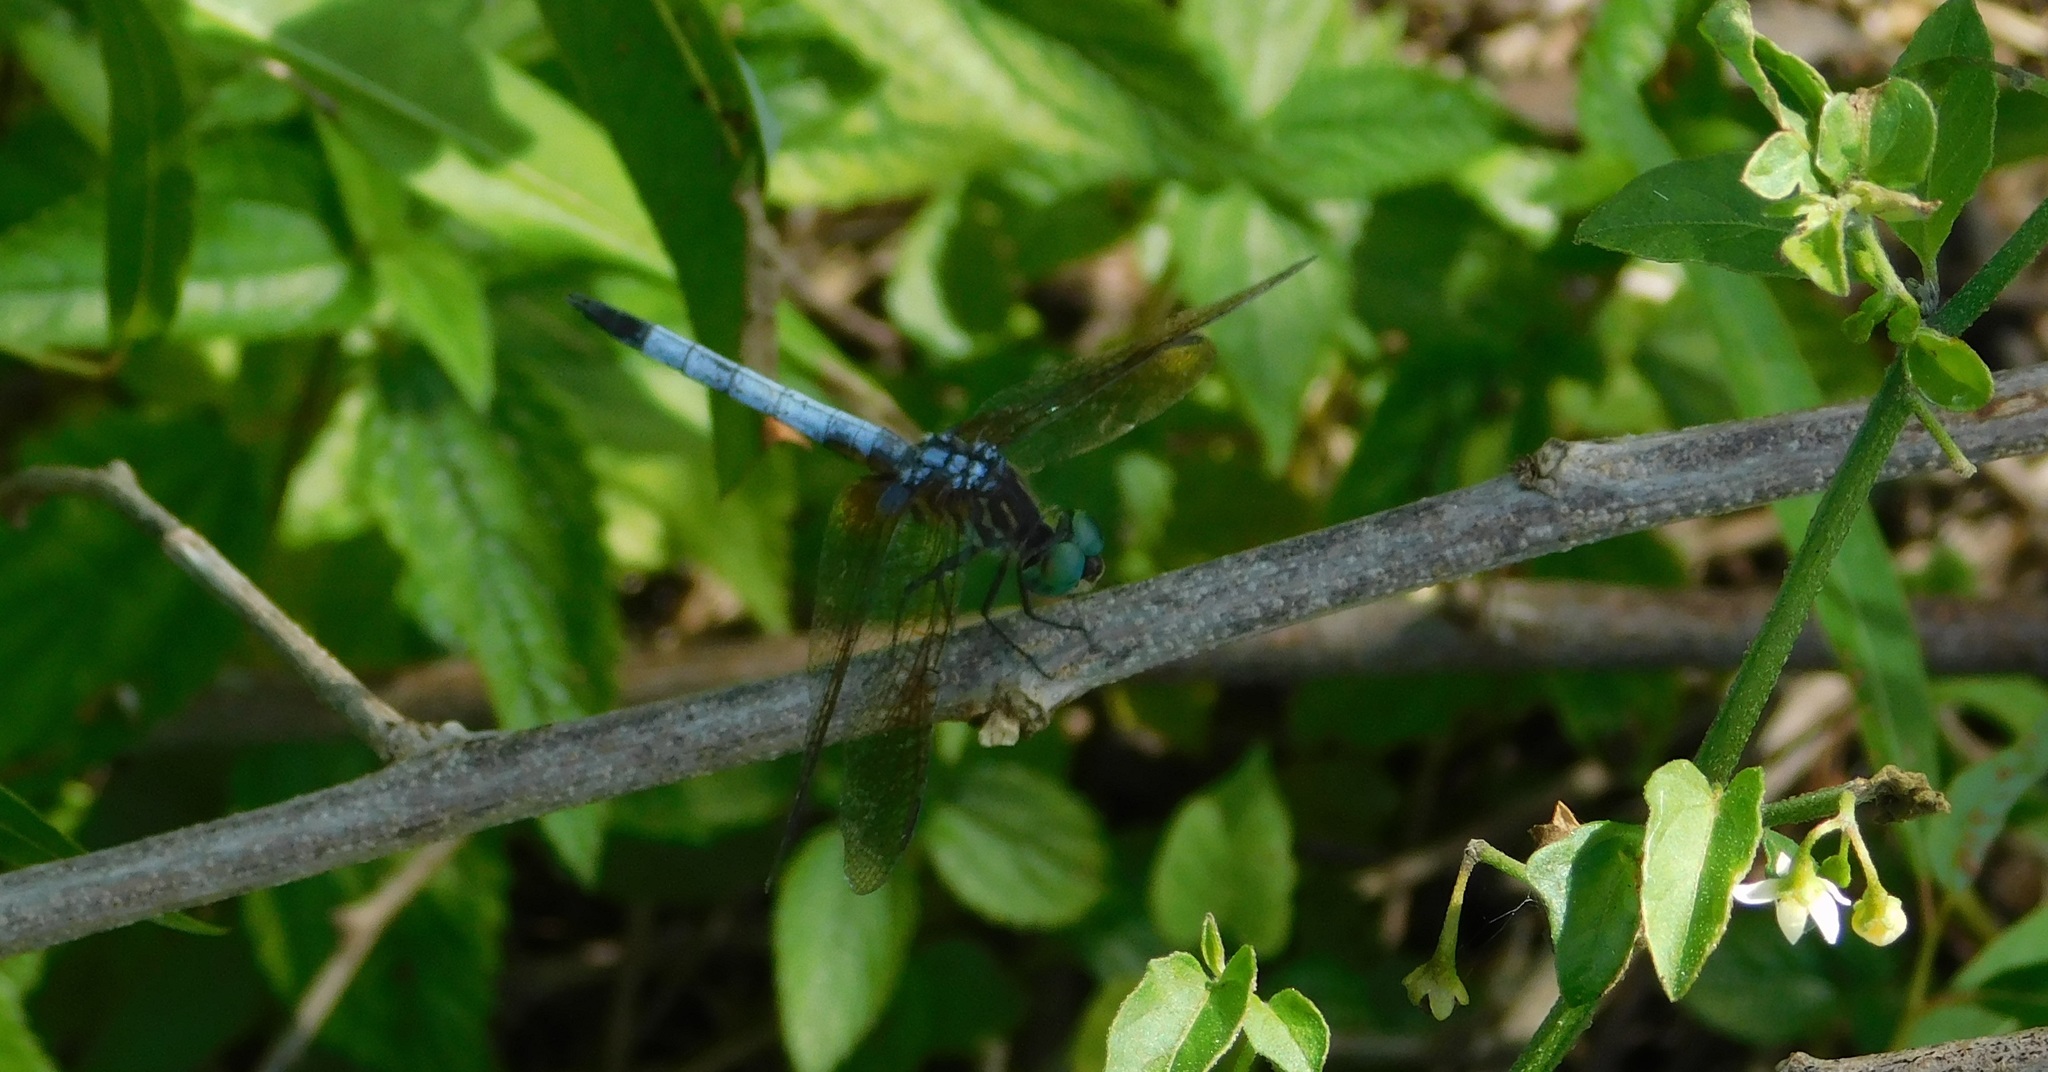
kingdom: Animalia
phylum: Arthropoda
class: Insecta
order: Odonata
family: Libellulidae
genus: Pachydiplax
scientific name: Pachydiplax longipennis
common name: Blue dasher
